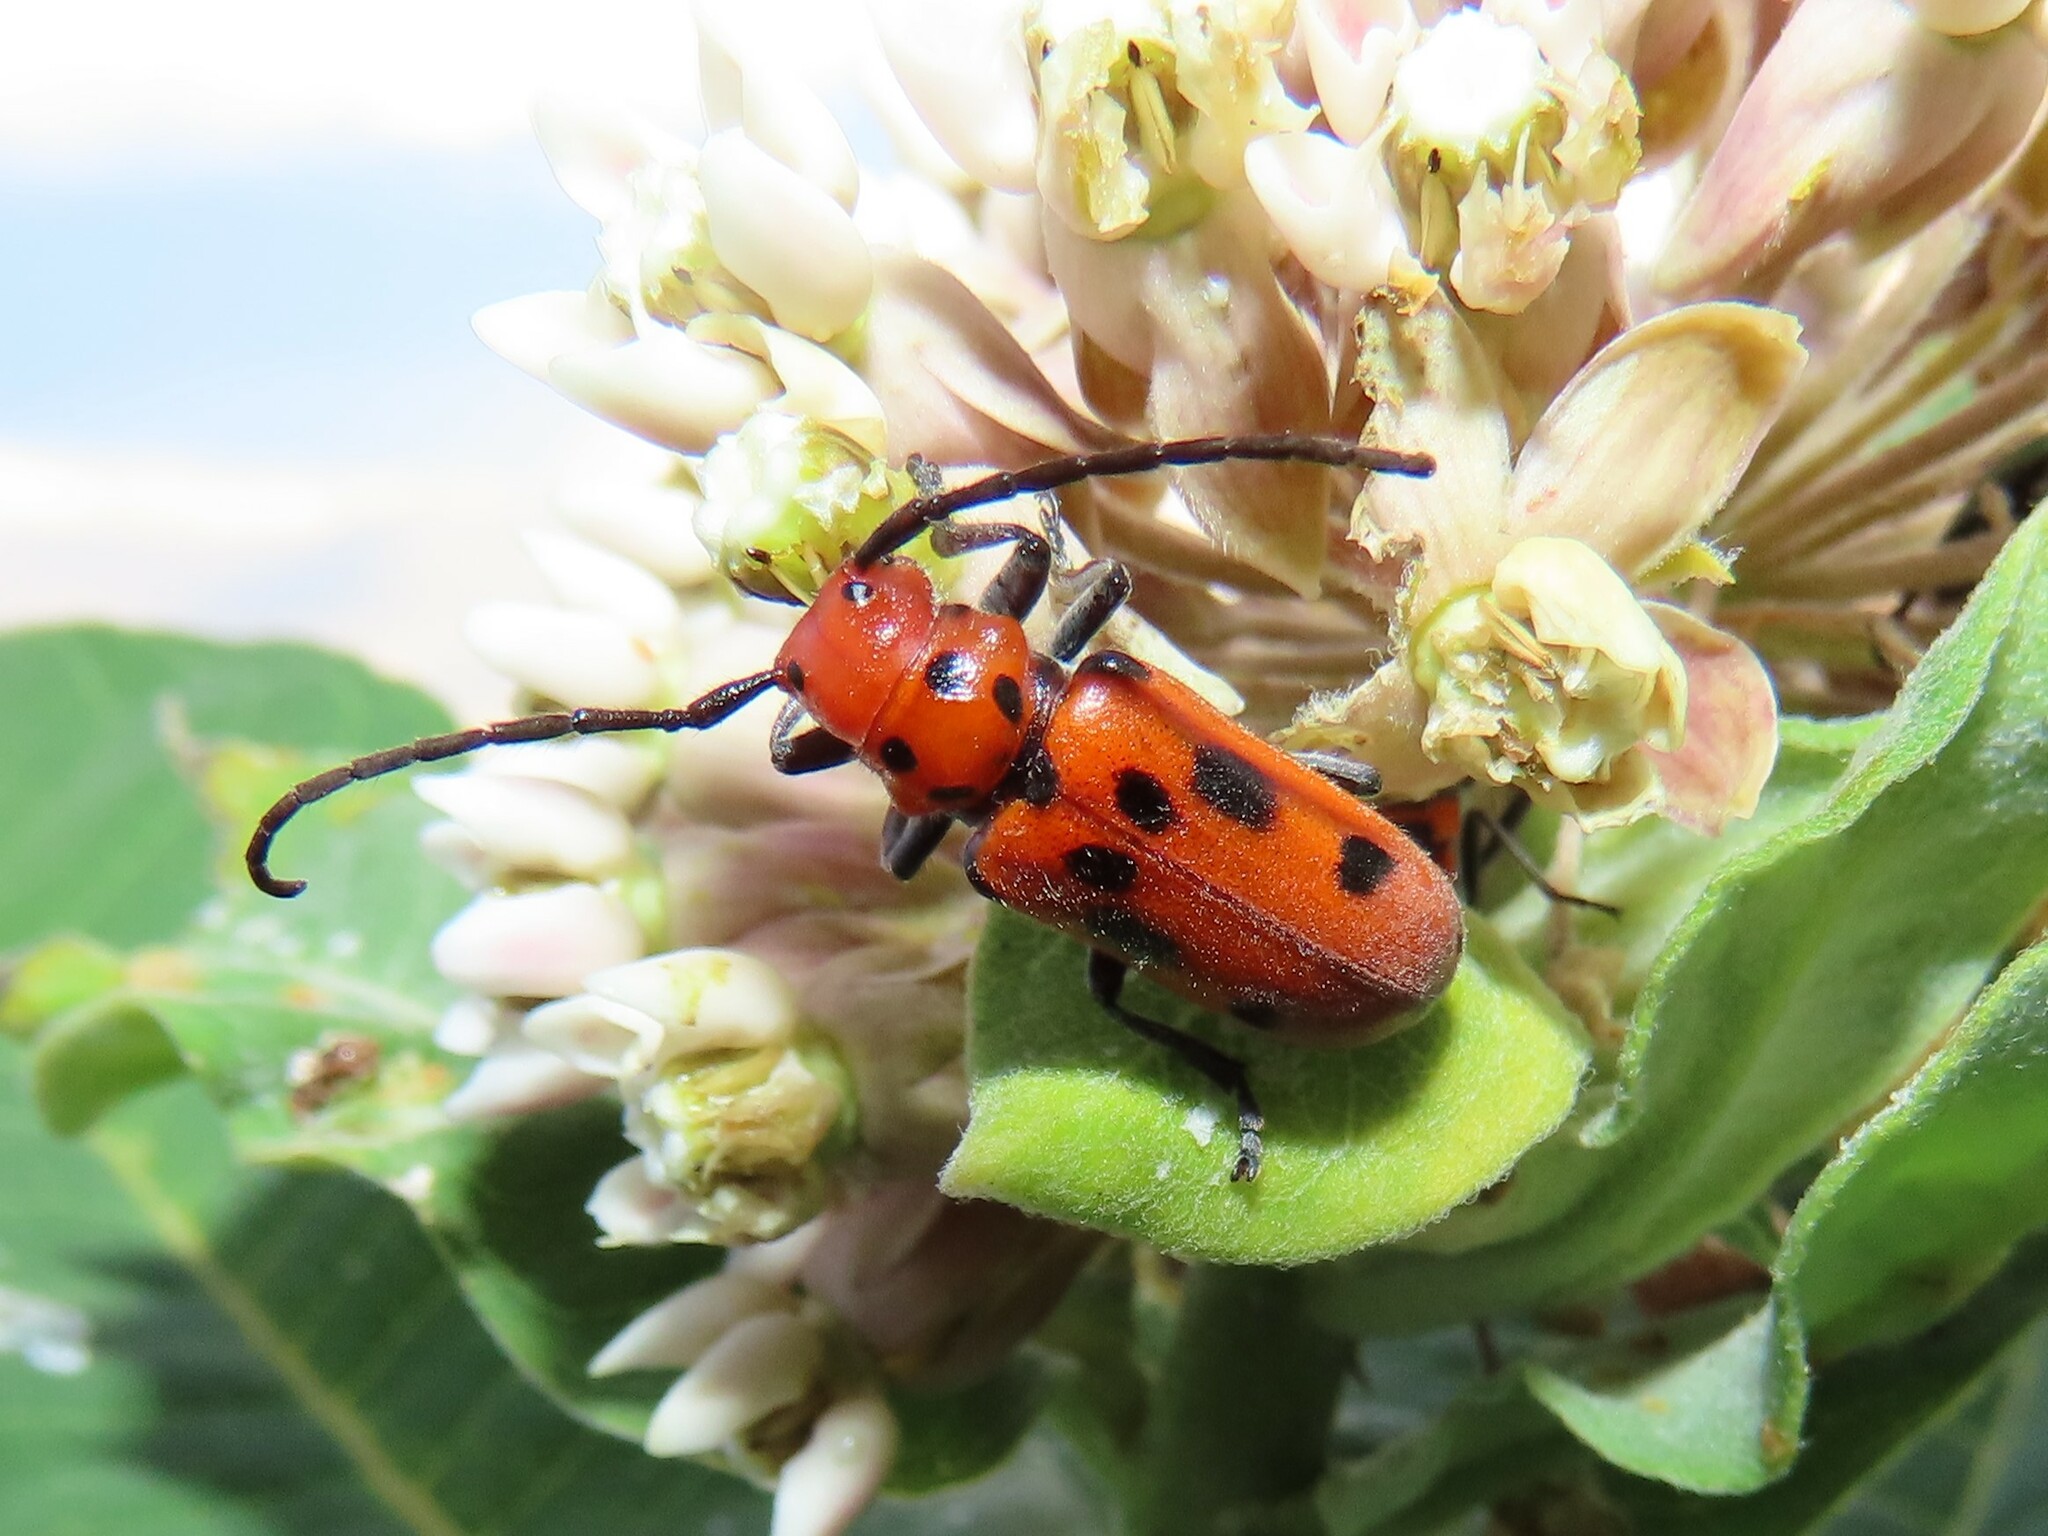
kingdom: Animalia
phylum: Arthropoda
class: Insecta
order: Coleoptera
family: Cerambycidae
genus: Tetraopes
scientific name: Tetraopes tetrophthalmus
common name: Red milkweed beetle
